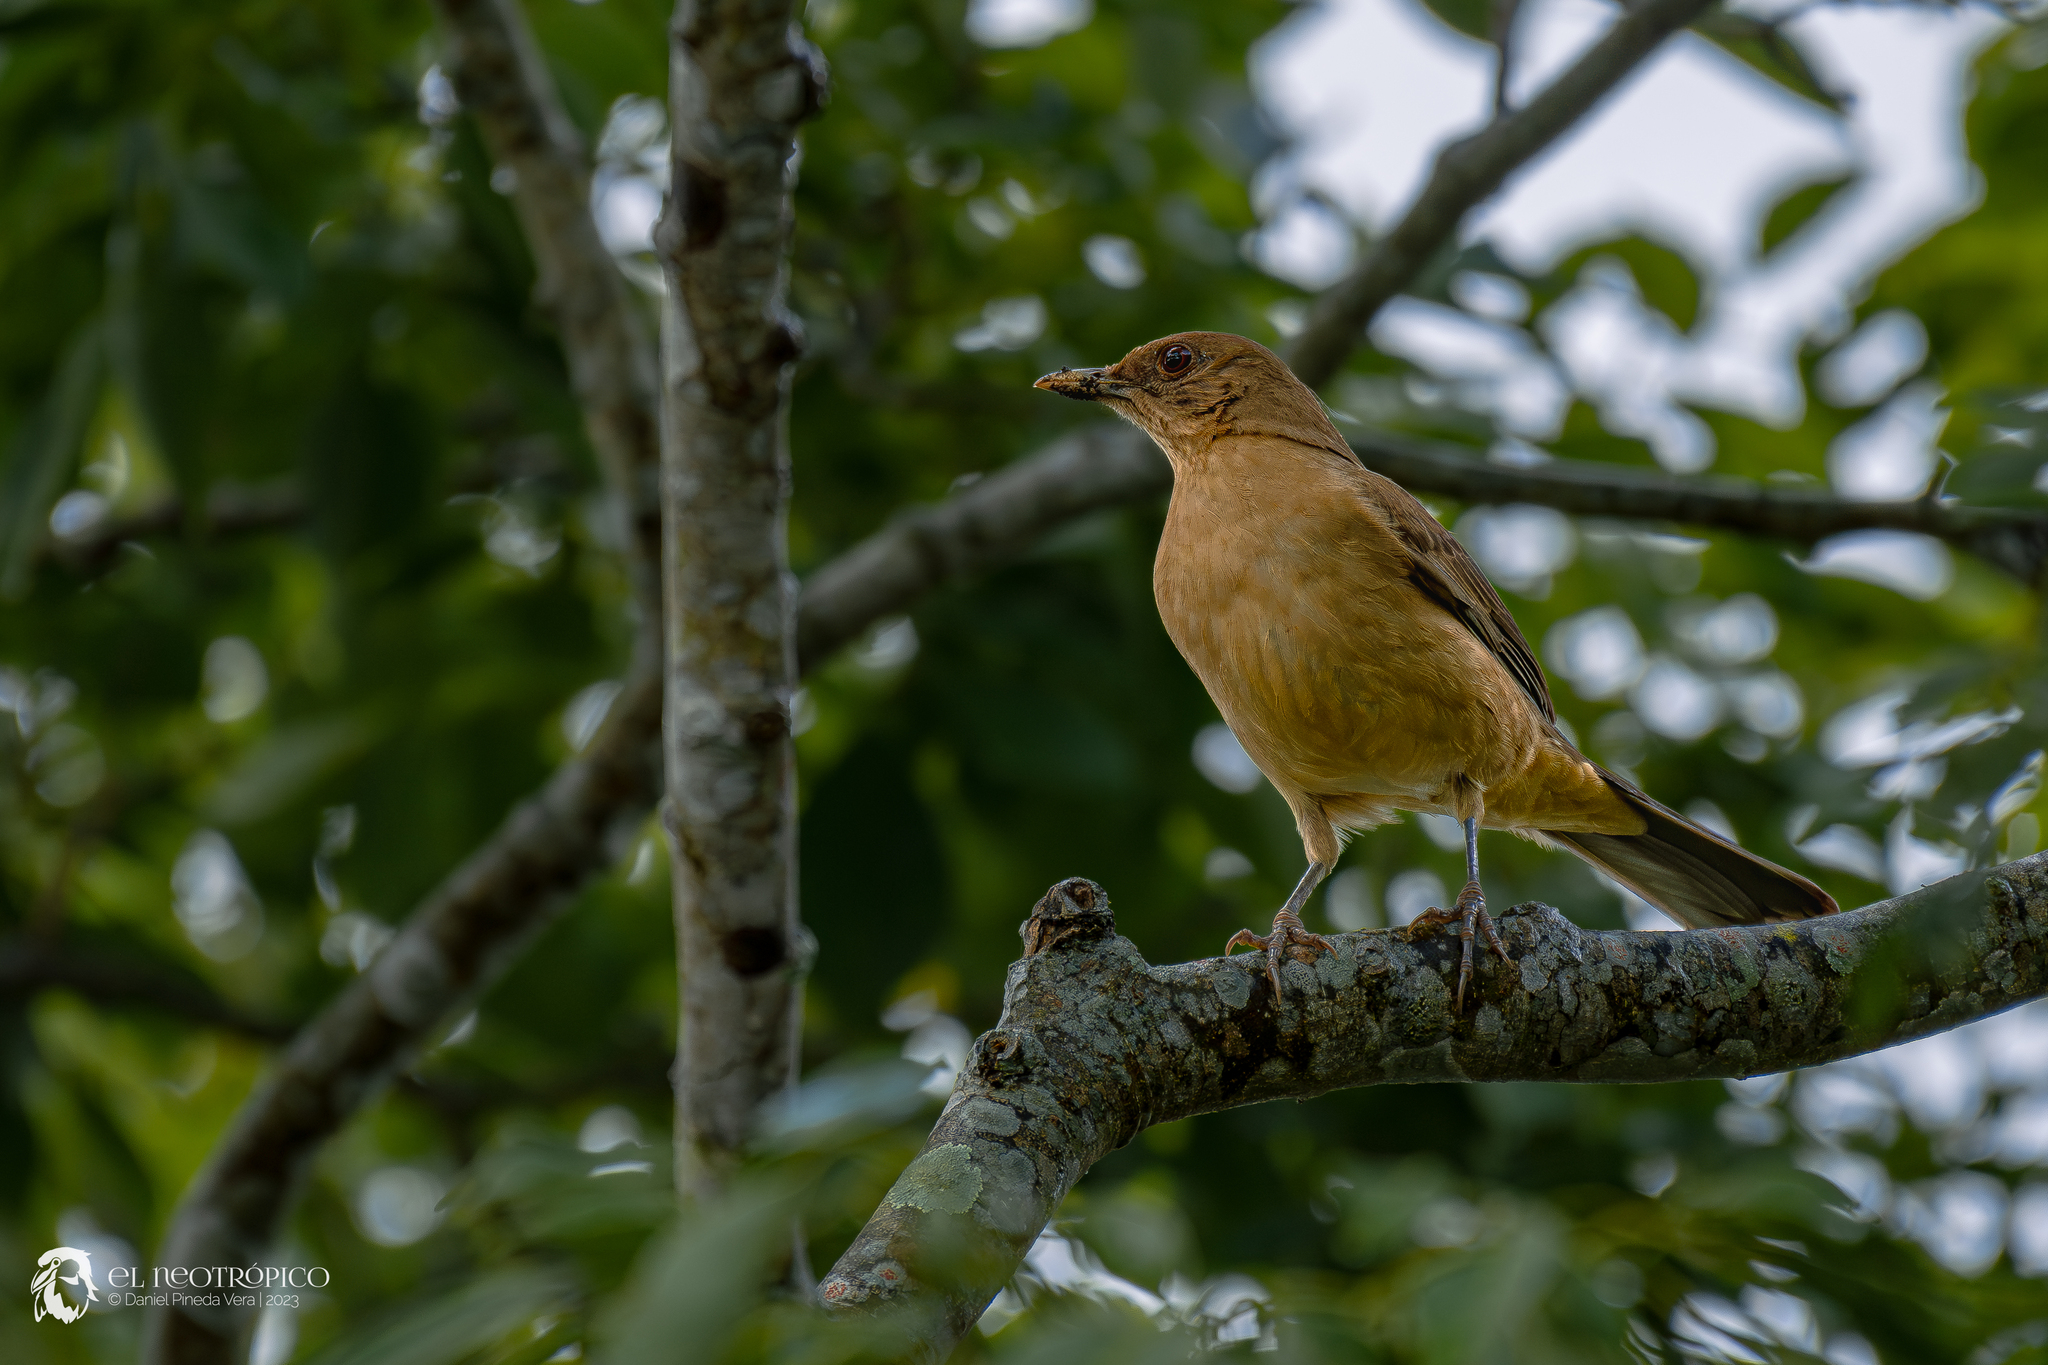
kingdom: Animalia
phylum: Chordata
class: Aves
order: Passeriformes
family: Turdidae
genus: Turdus
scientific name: Turdus grayi
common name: Clay-colored thrush
